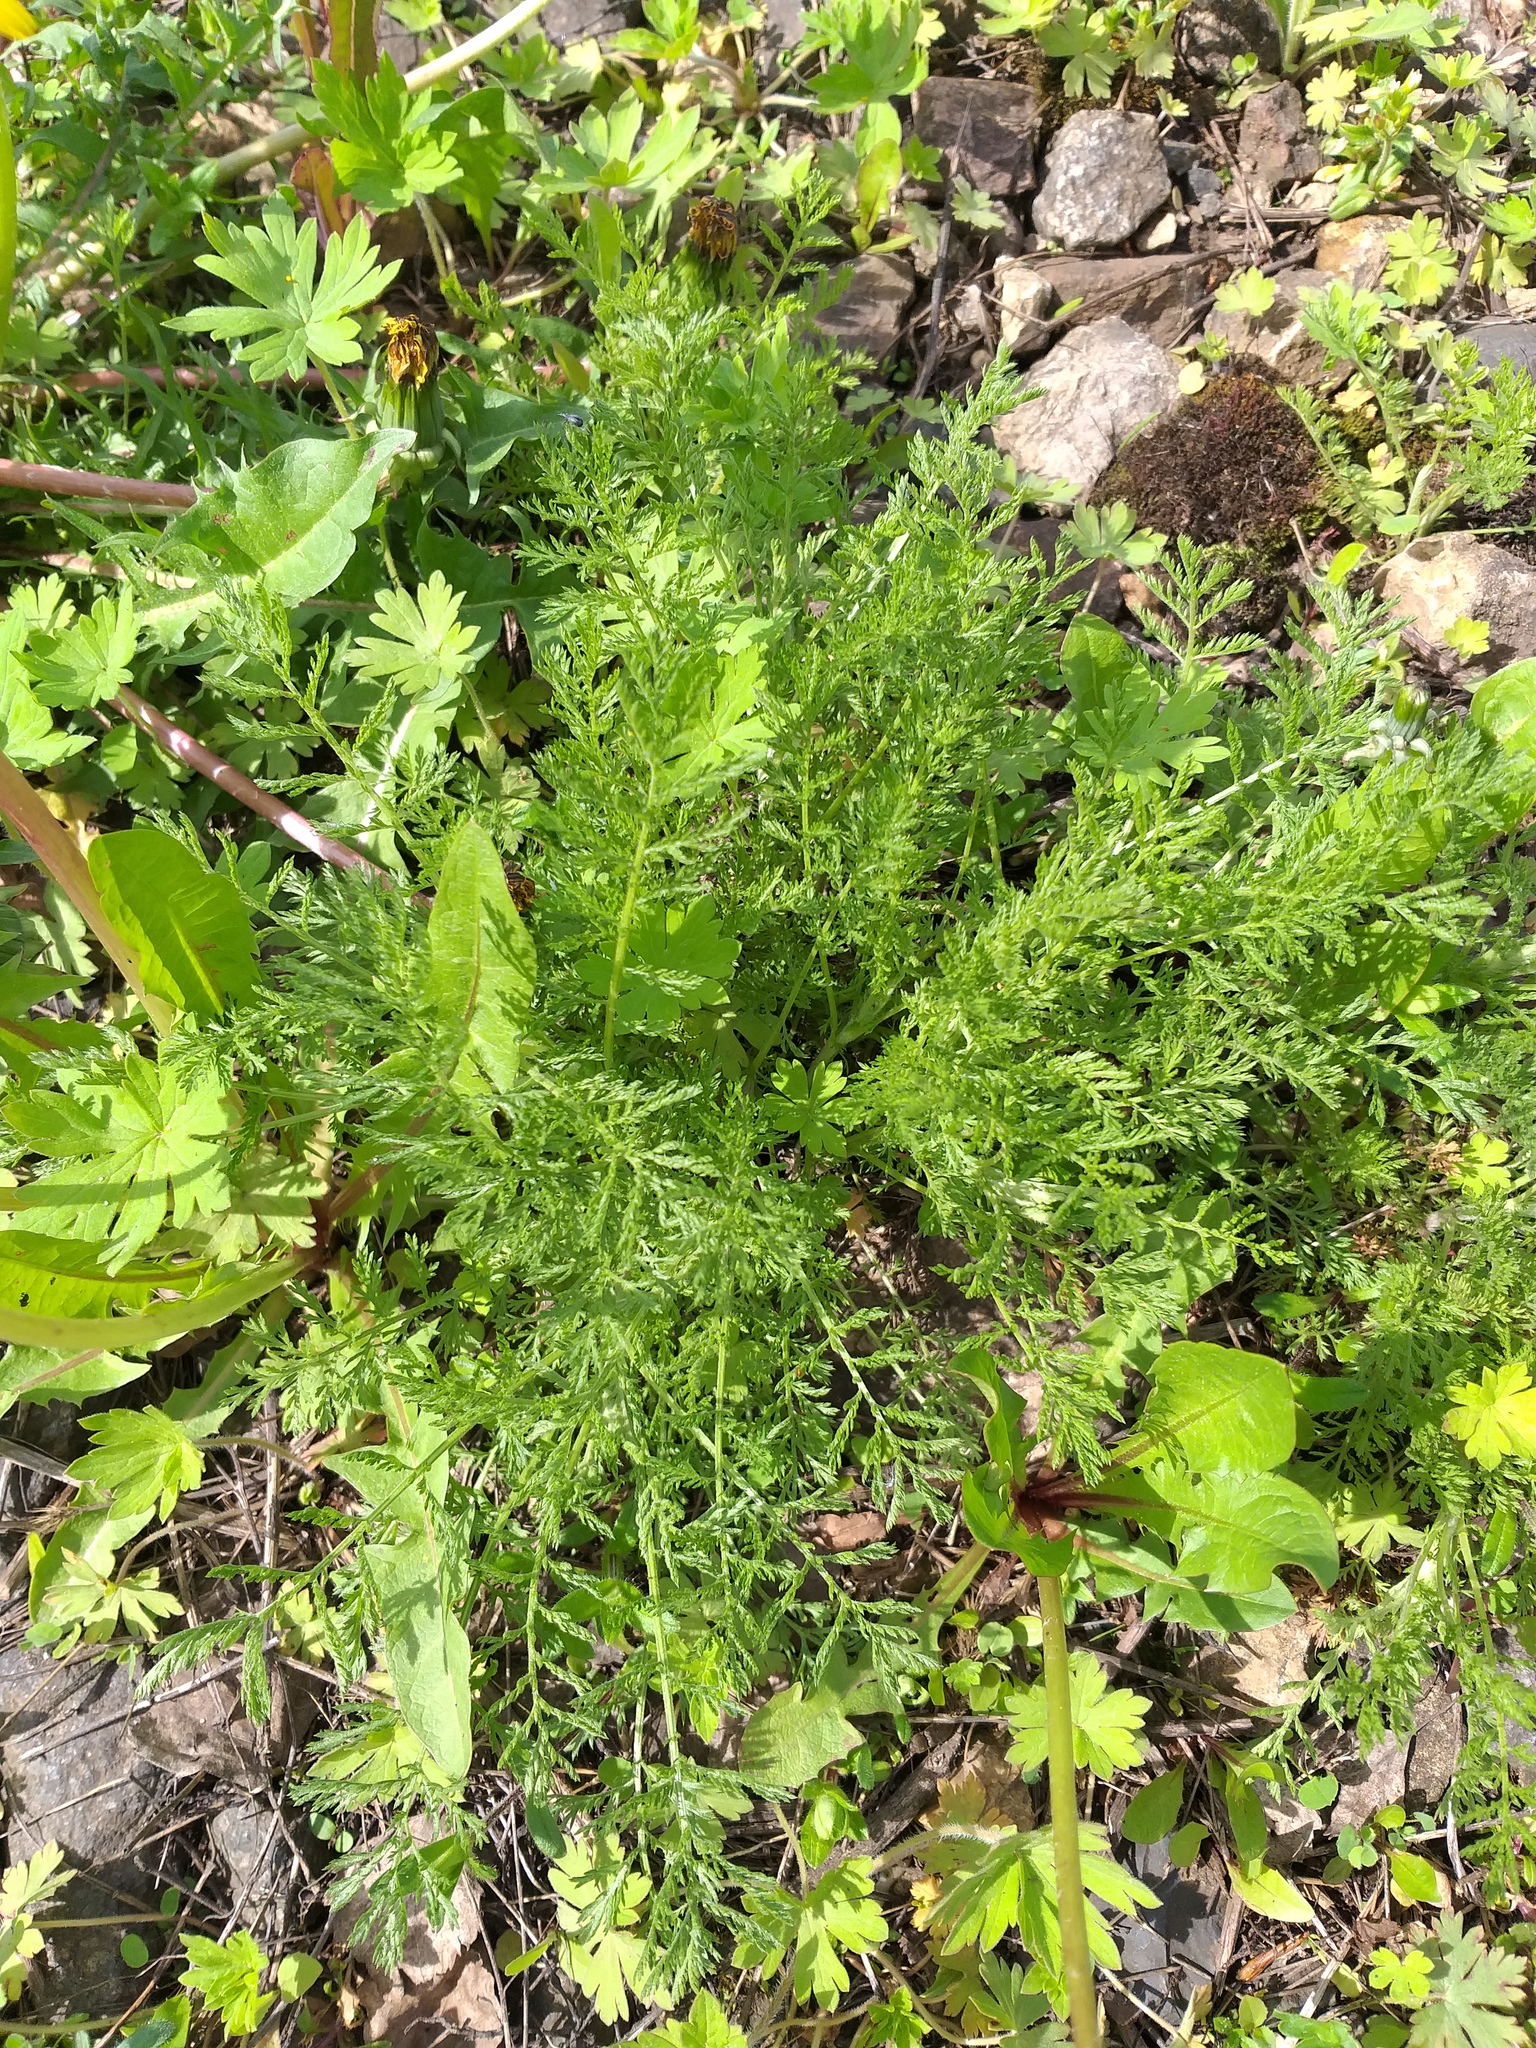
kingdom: Plantae
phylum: Tracheophyta
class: Magnoliopsida
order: Asterales
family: Asteraceae
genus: Achillea
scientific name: Achillea nobilis
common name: Noble yarrow
